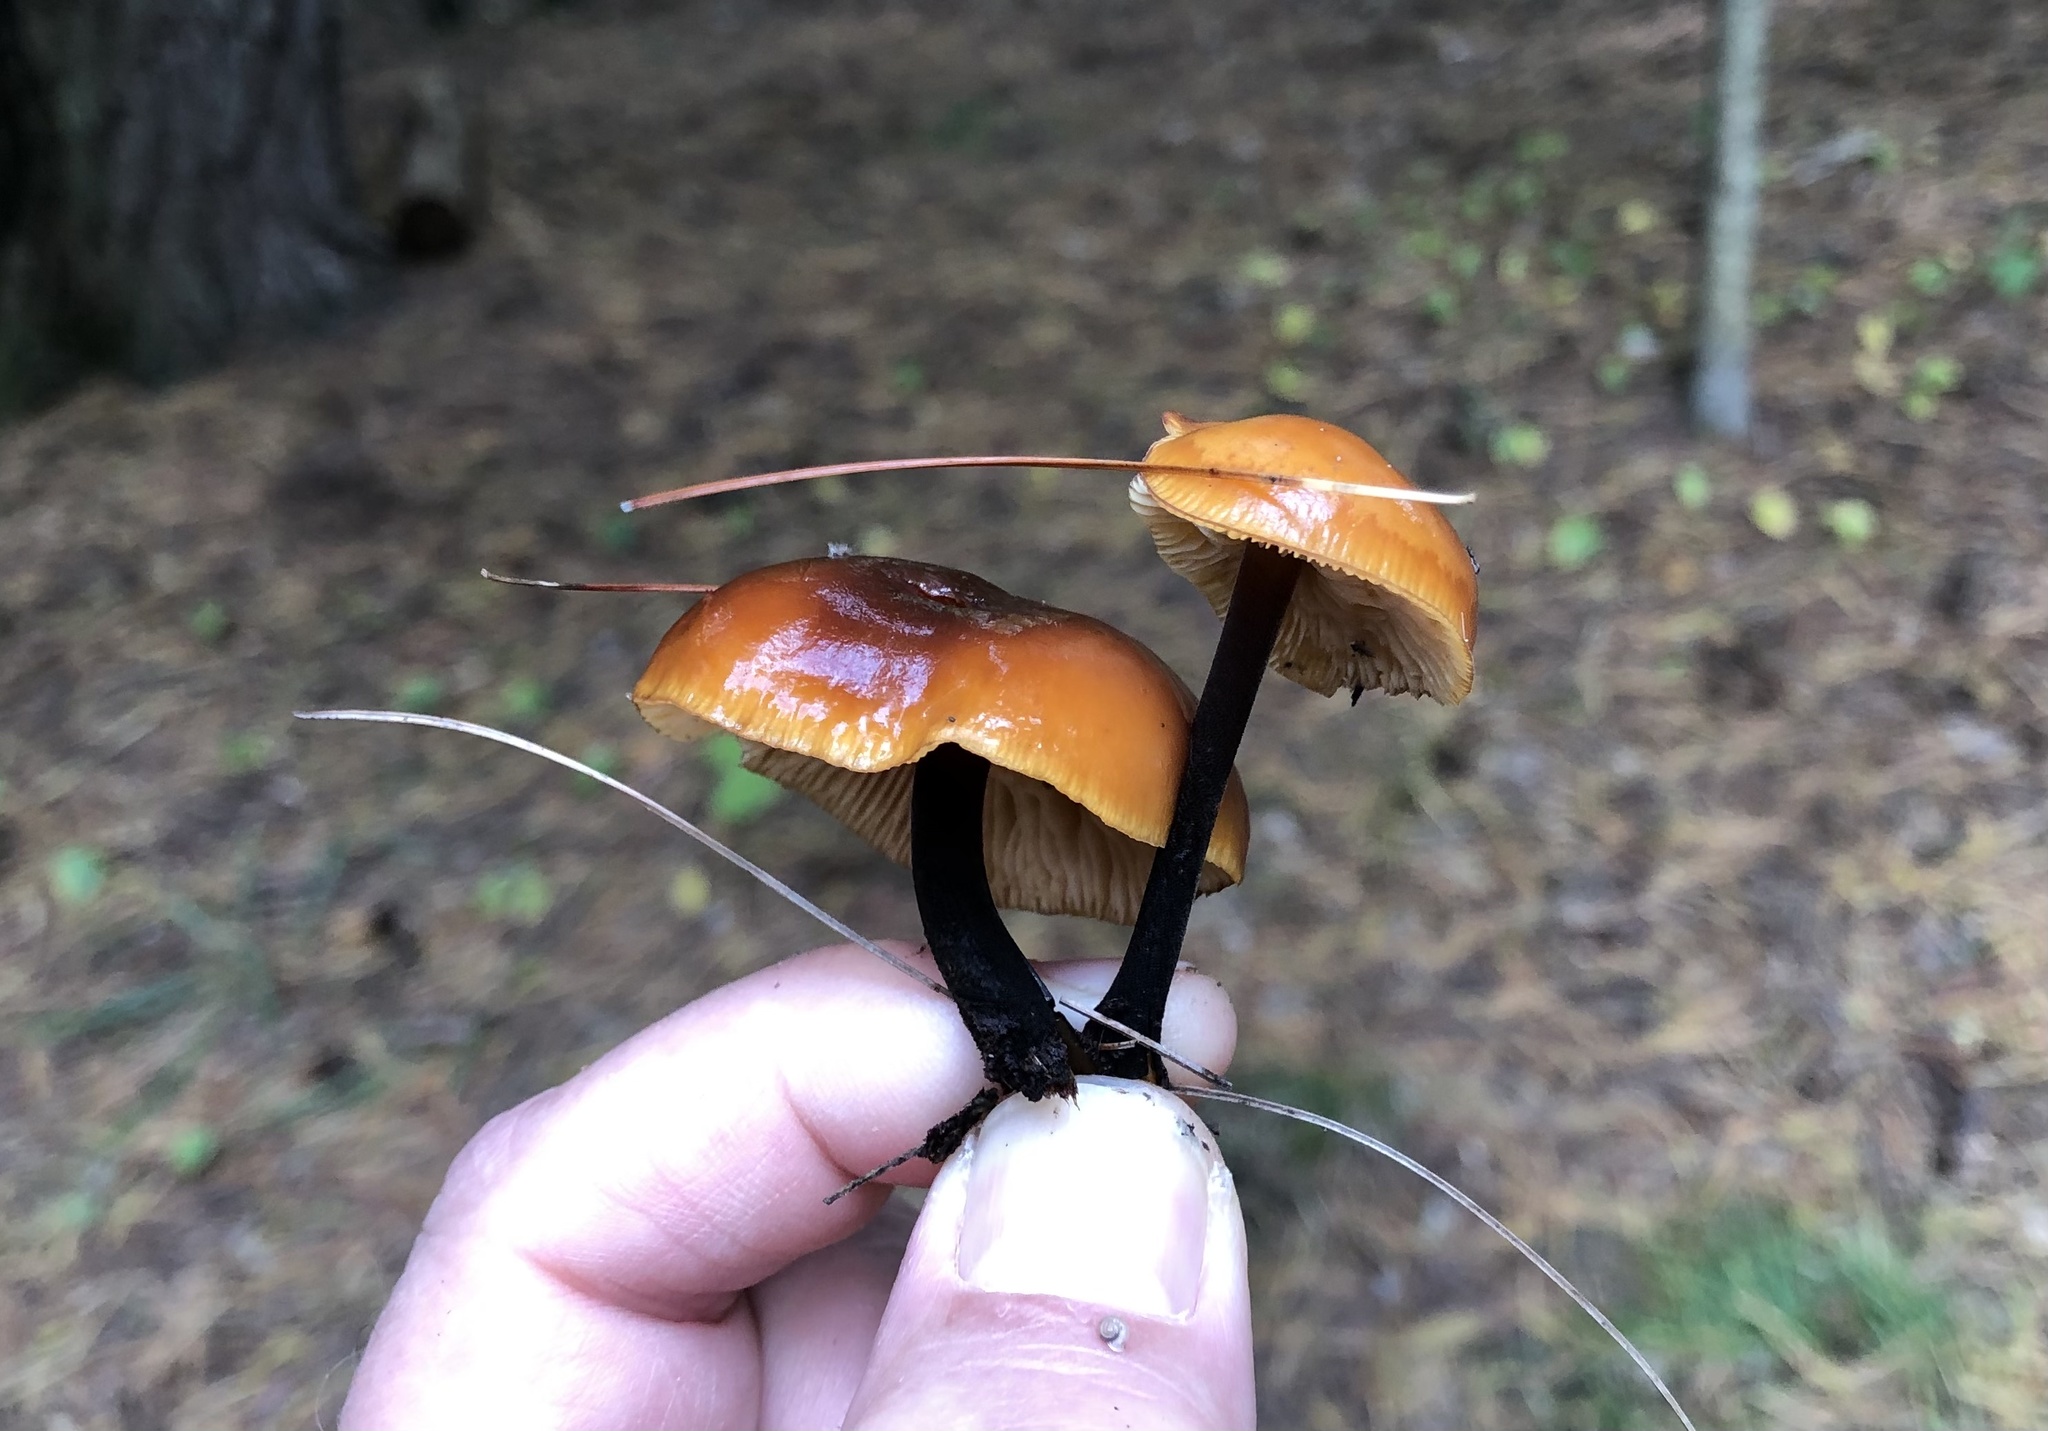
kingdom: Fungi
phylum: Basidiomycota
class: Agaricomycetes
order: Agaricales
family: Physalacriaceae
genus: Flammulina
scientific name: Flammulina velutipes
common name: Velvet shank
